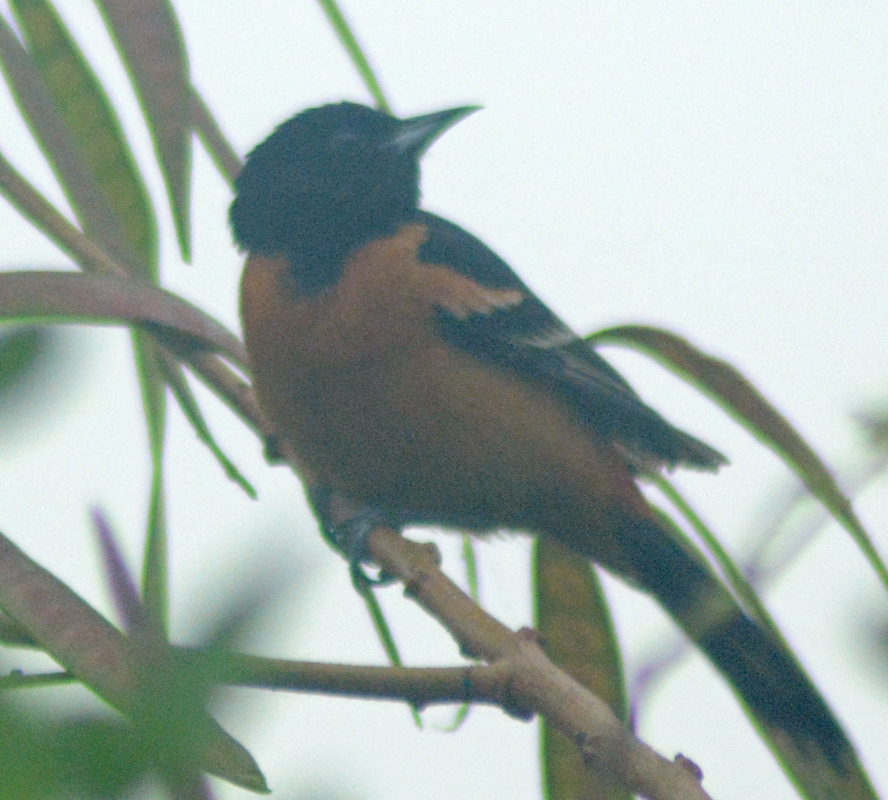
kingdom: Animalia
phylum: Chordata
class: Aves
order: Passeriformes
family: Icteridae
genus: Icterus
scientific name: Icterus spurius
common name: Orchard oriole
